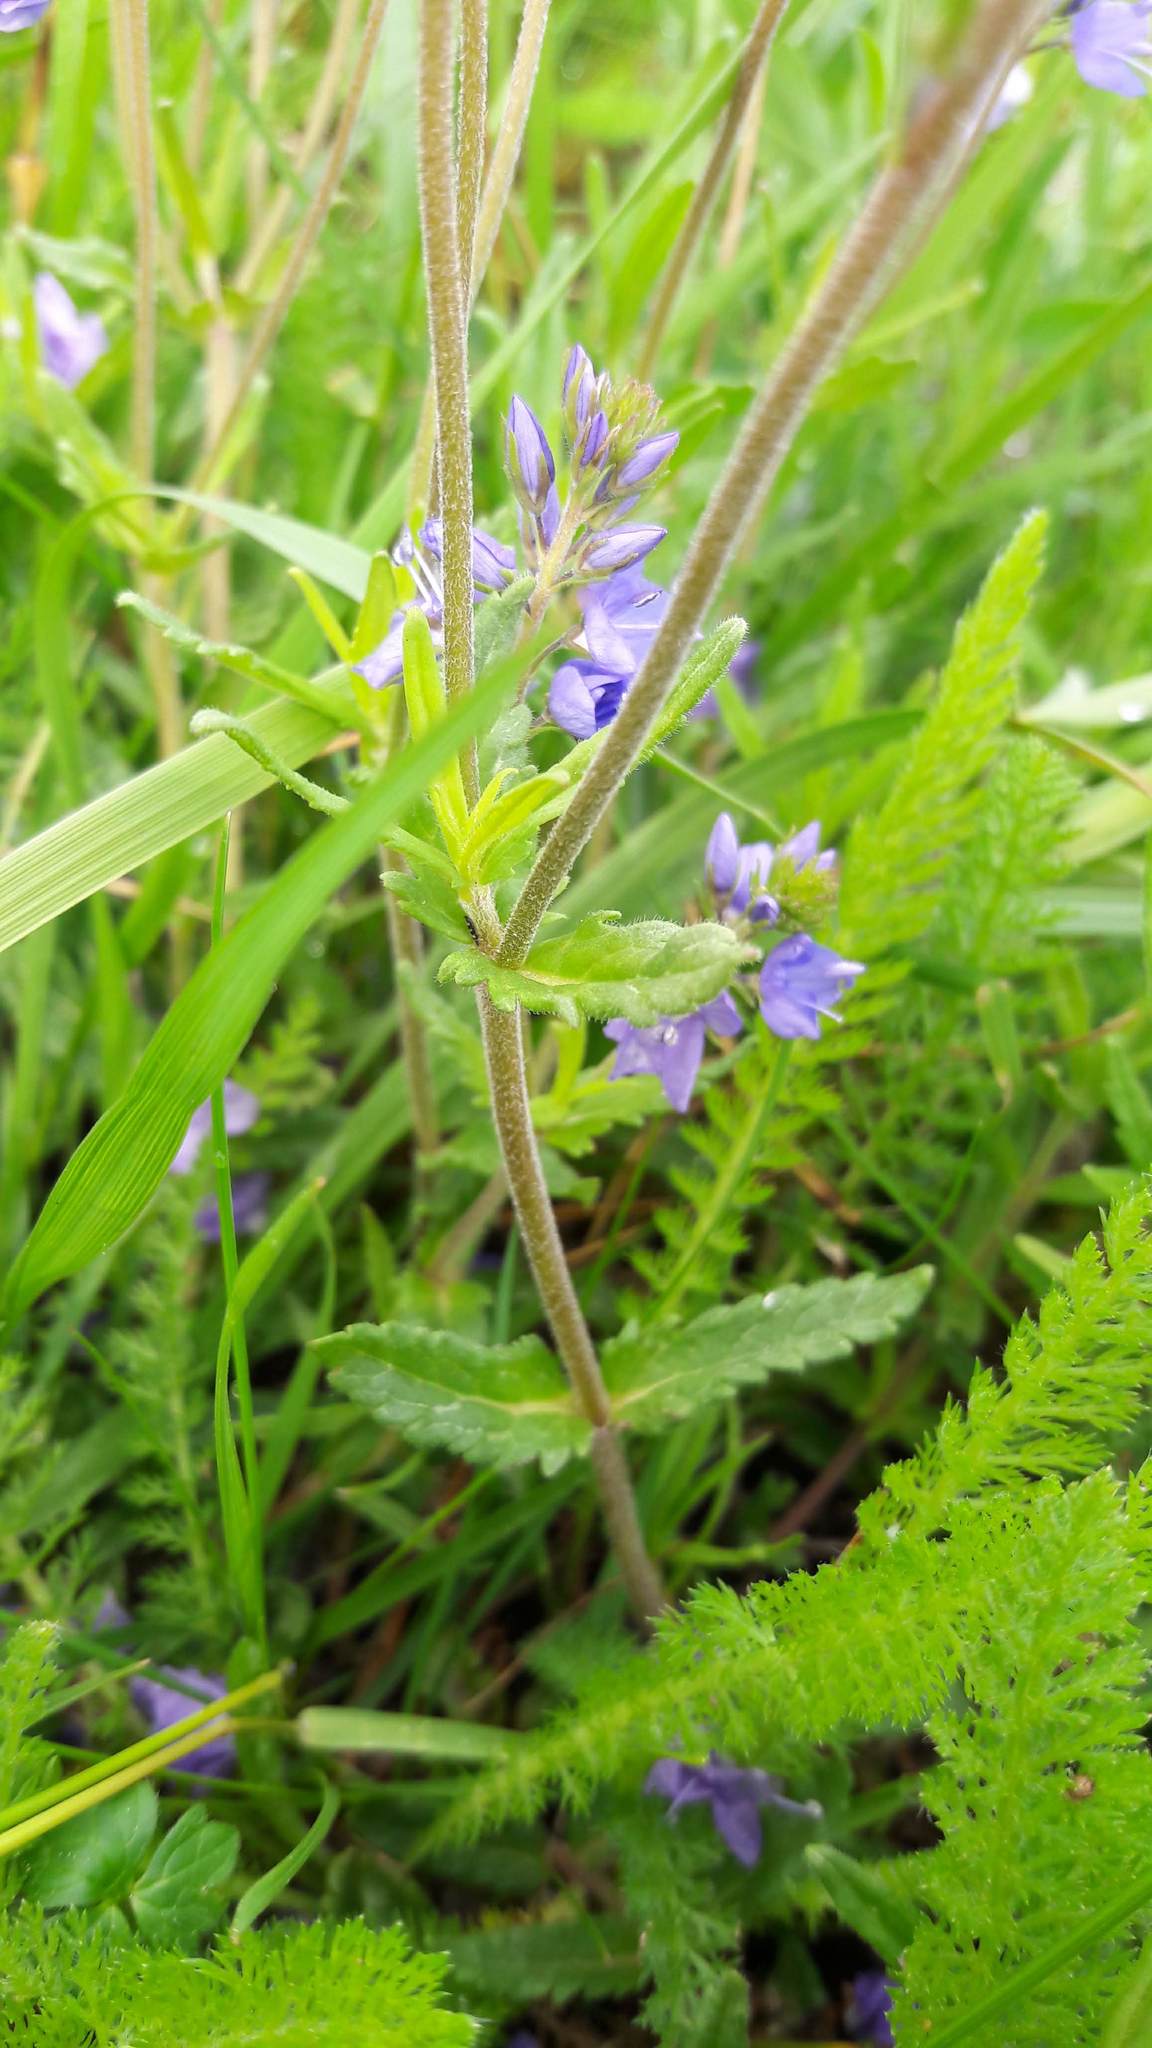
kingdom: Plantae
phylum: Tracheophyta
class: Magnoliopsida
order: Lamiales
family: Orobanchaceae
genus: Rhinanthus
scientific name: Rhinanthus alectorolophus
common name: Greater yellow-rattle
